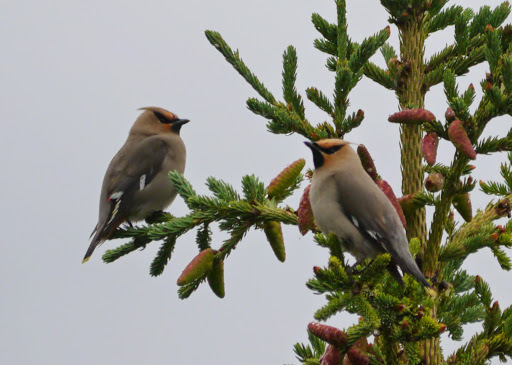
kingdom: Animalia
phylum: Chordata
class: Aves
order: Passeriformes
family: Bombycillidae
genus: Bombycilla
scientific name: Bombycilla garrulus
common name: Bohemian waxwing
